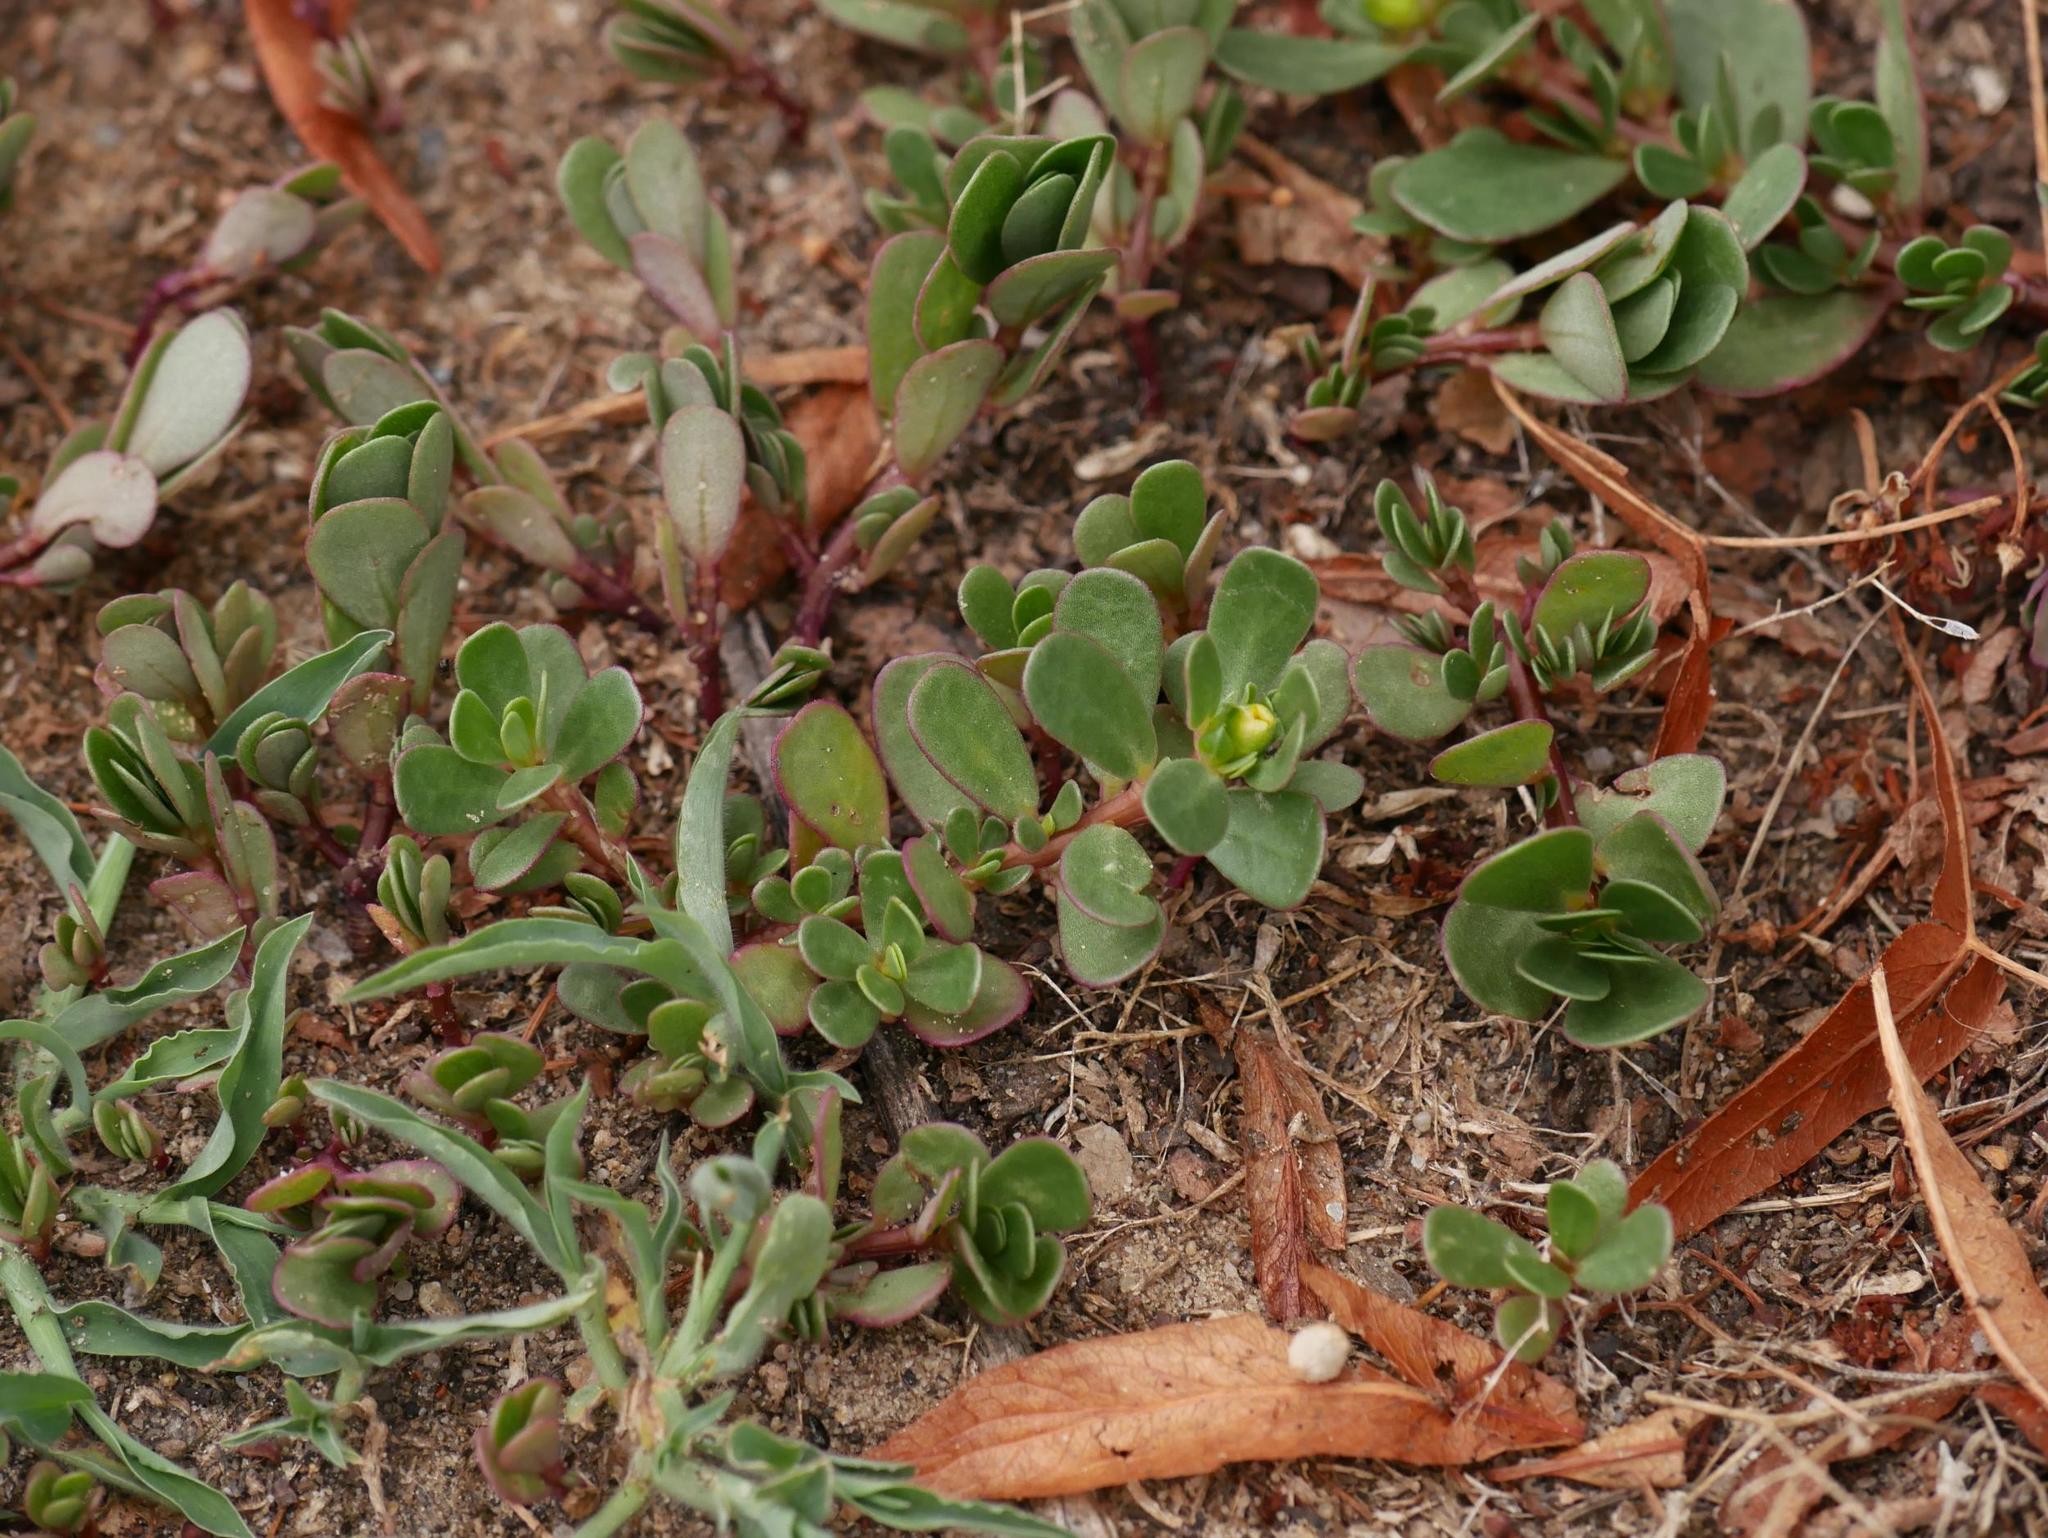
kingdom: Plantae
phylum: Tracheophyta
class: Magnoliopsida
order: Caryophyllales
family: Portulacaceae
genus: Portulaca
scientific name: Portulaca oleracea
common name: Common purslane
